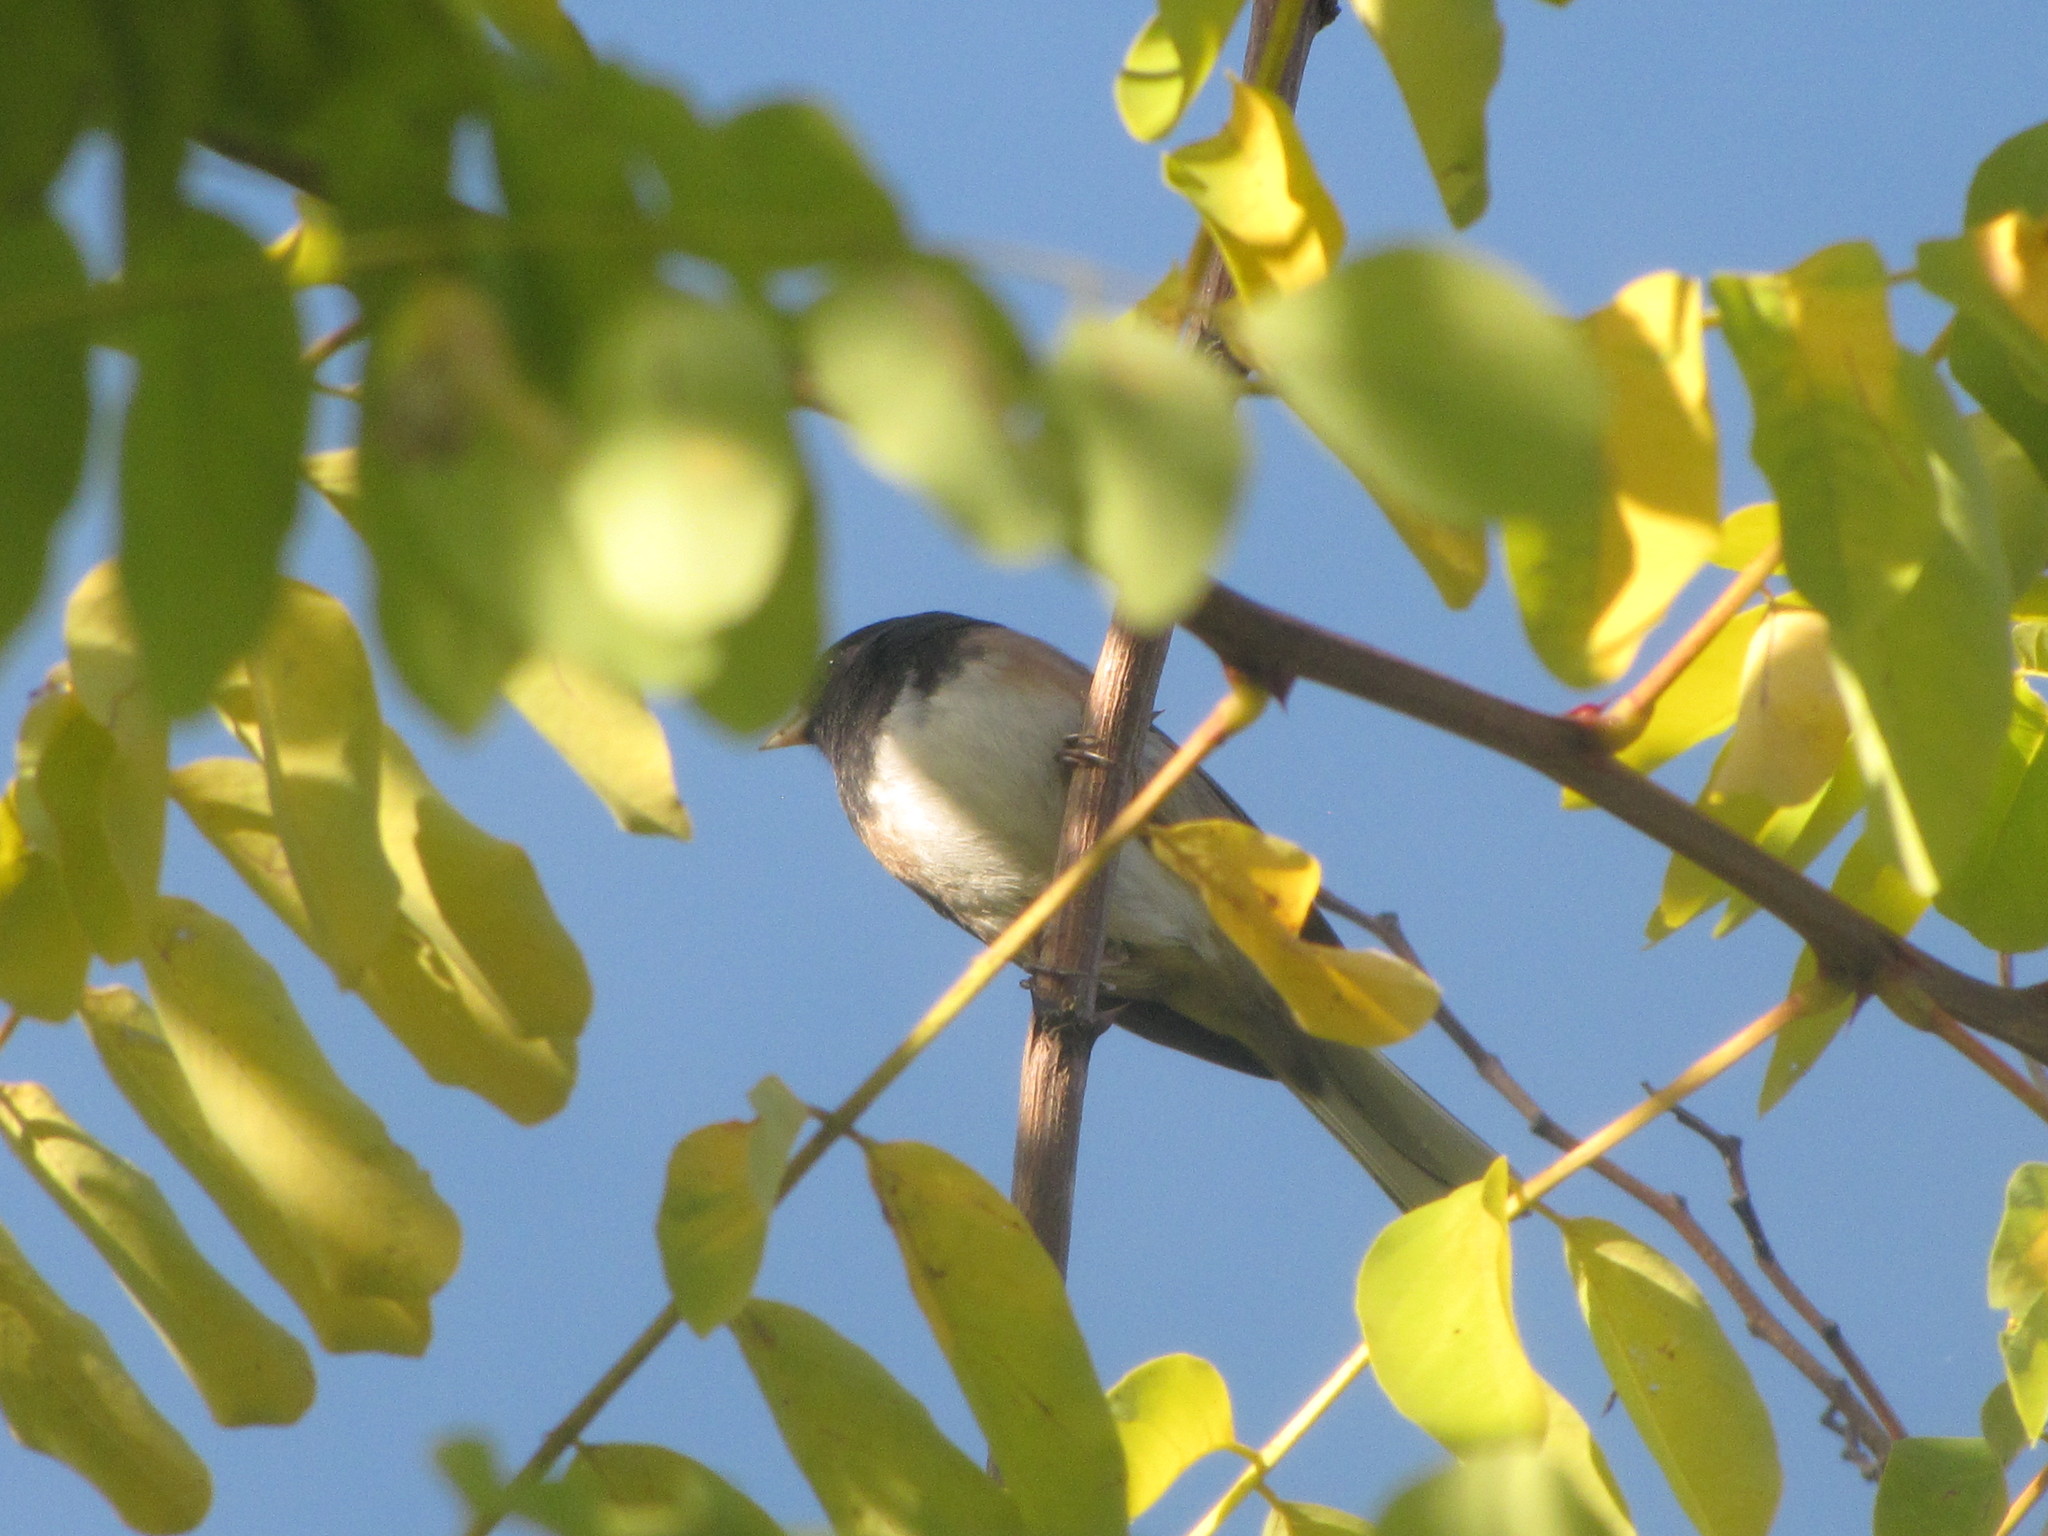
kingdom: Animalia
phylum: Chordata
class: Aves
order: Passeriformes
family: Passerellidae
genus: Junco
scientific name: Junco hyemalis
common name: Dark-eyed junco
